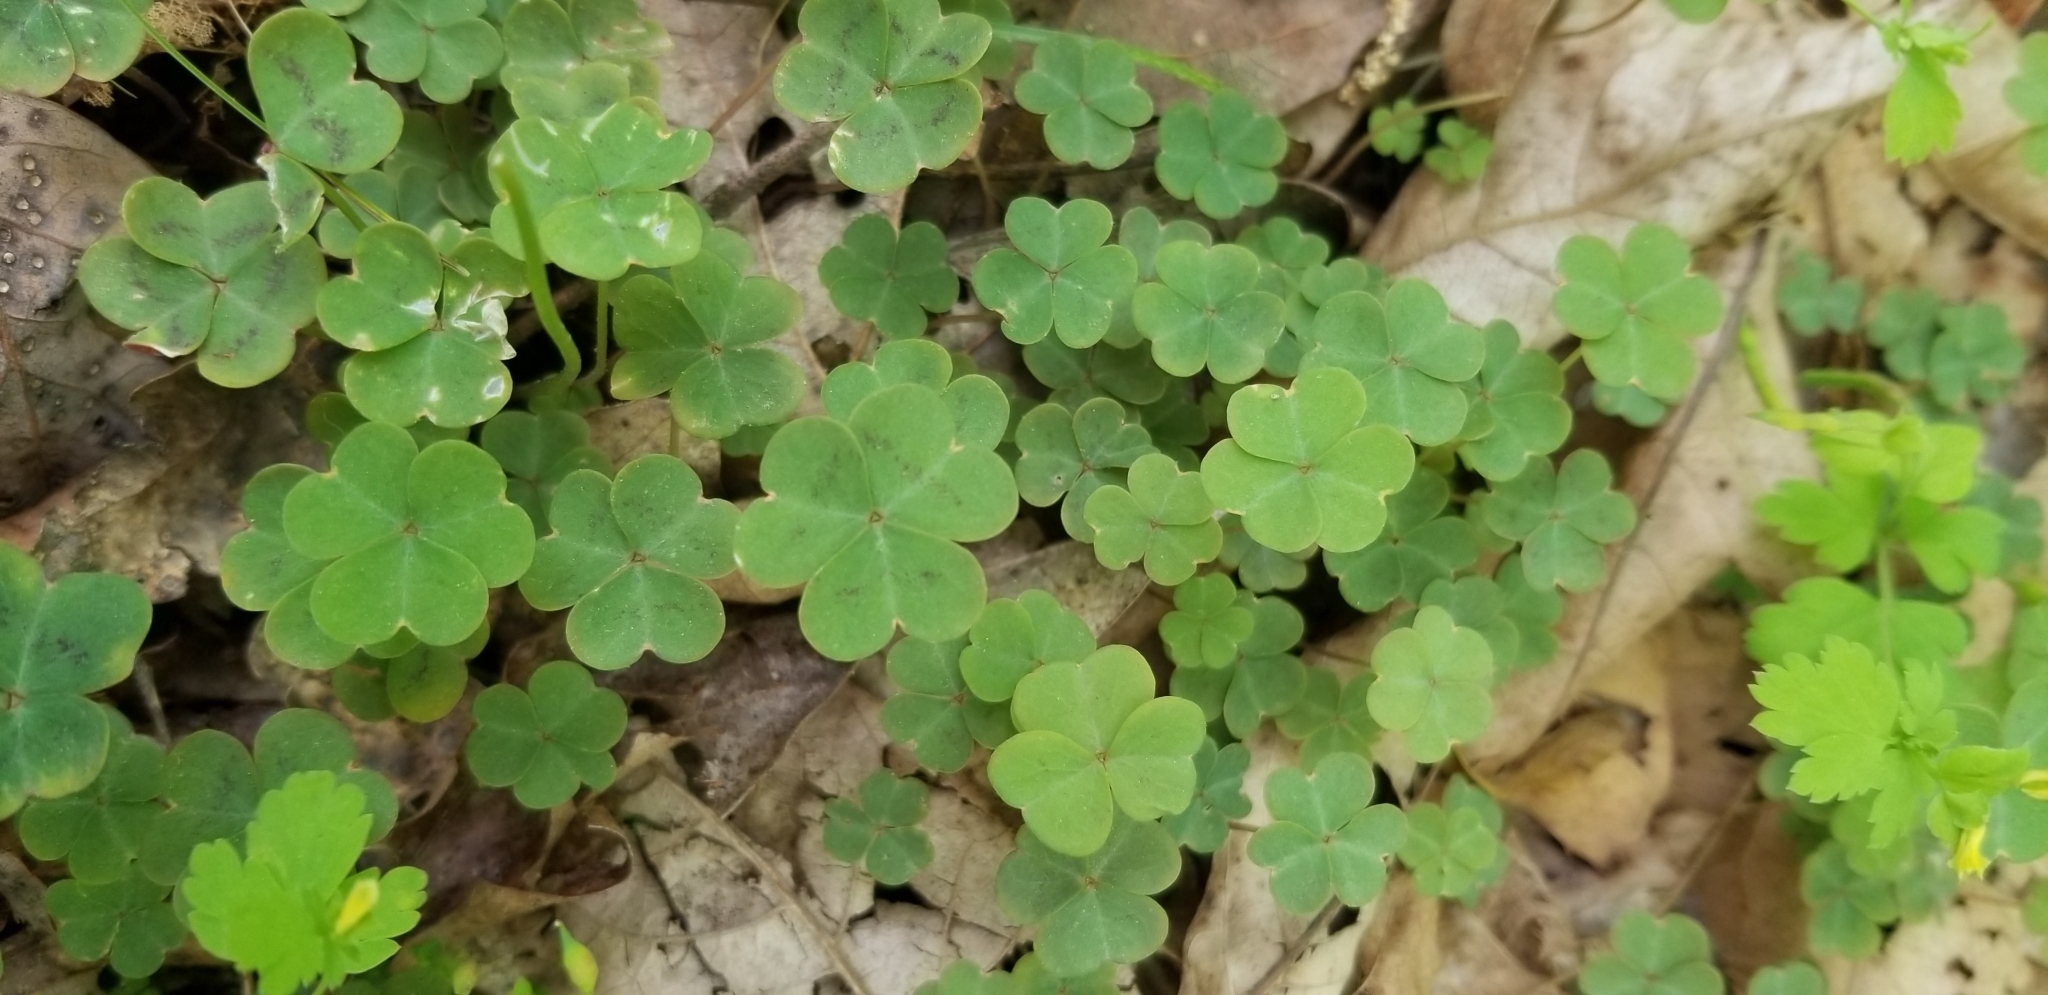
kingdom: Plantae
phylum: Tracheophyta
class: Magnoliopsida
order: Oxalidales
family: Oxalidaceae
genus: Oxalis
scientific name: Oxalis violacea
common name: Violet wood-sorrel
